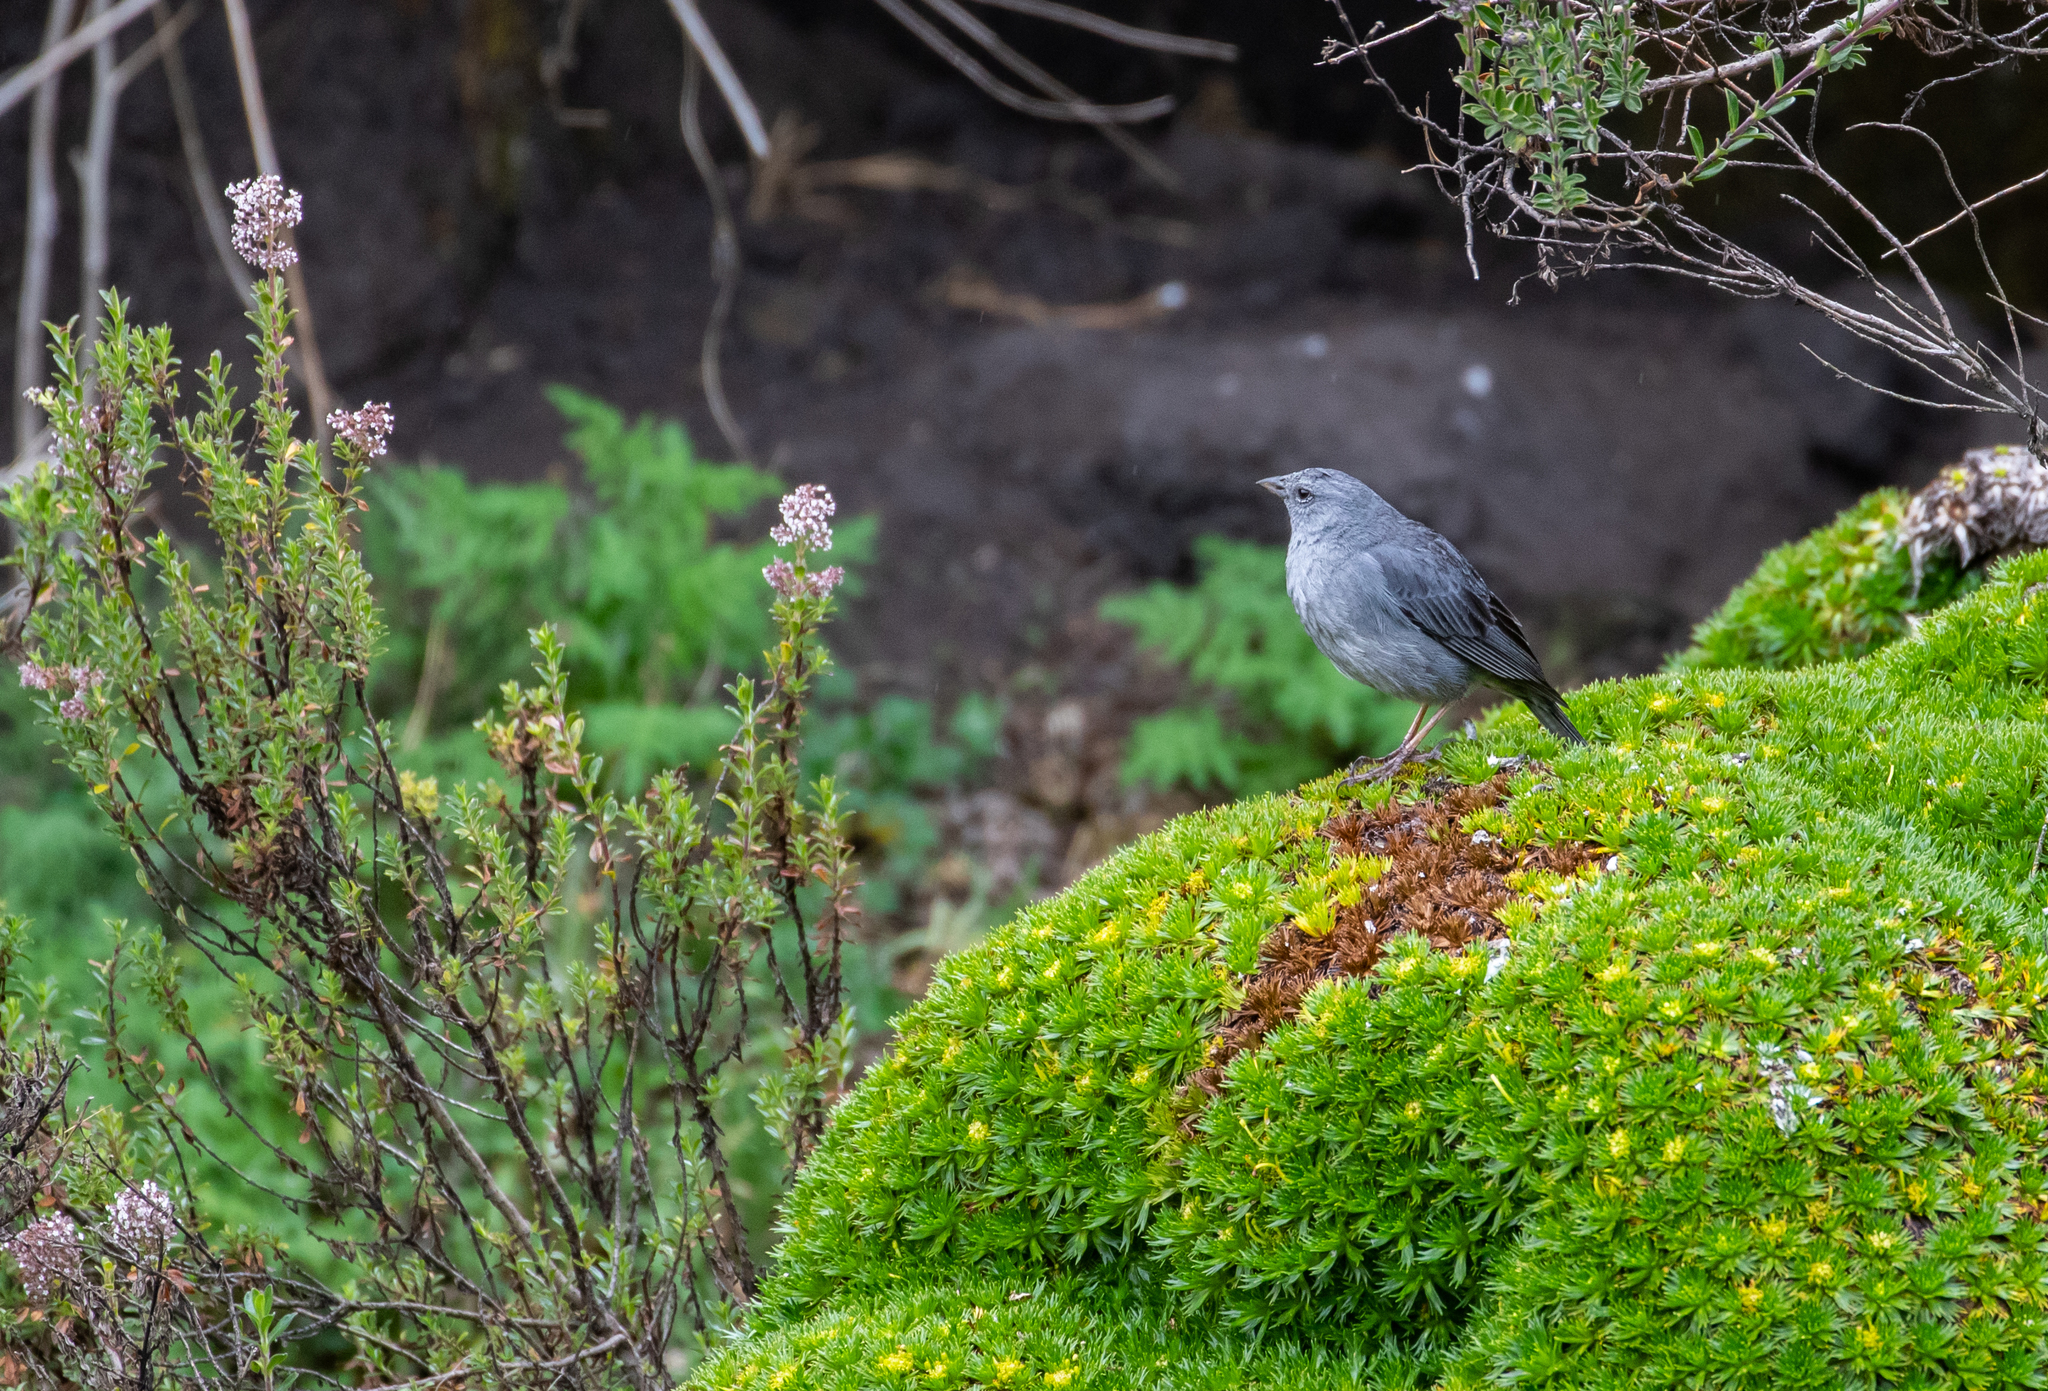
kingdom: Animalia
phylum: Chordata
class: Aves
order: Passeriformes
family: Thraupidae
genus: Geospizopsis
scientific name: Geospizopsis unicolor
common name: Plumbeous sierra-finch
